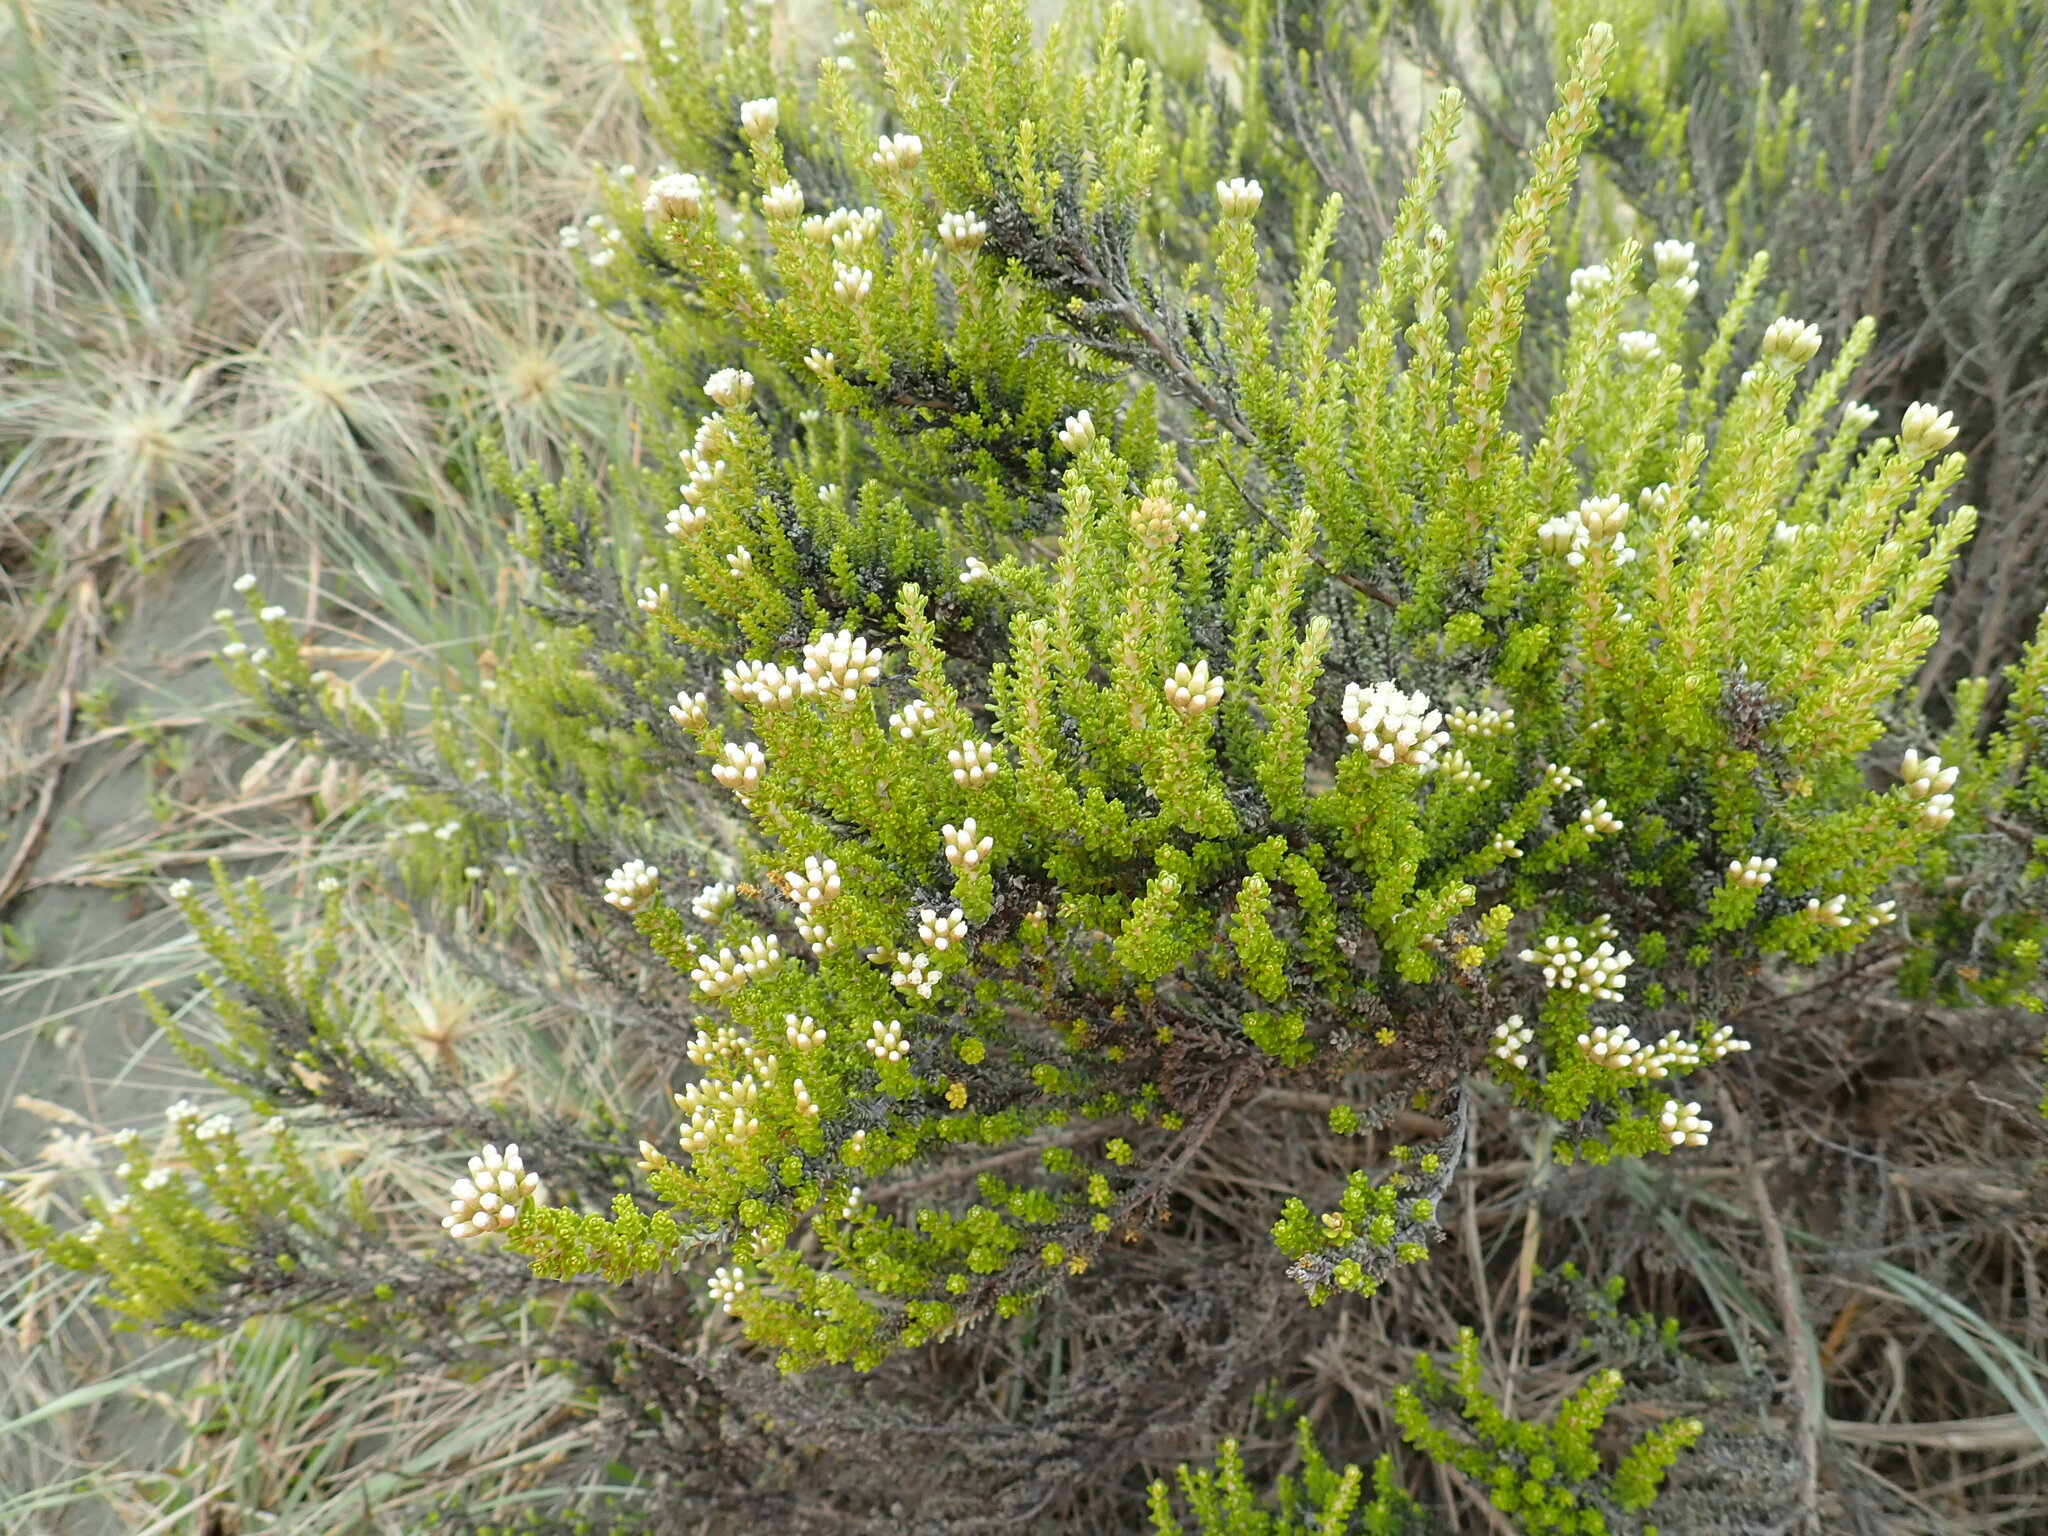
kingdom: Plantae
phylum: Tracheophyta
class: Magnoliopsida
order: Asterales
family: Asteraceae
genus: Ozothamnus
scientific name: Ozothamnus leptophyllus
